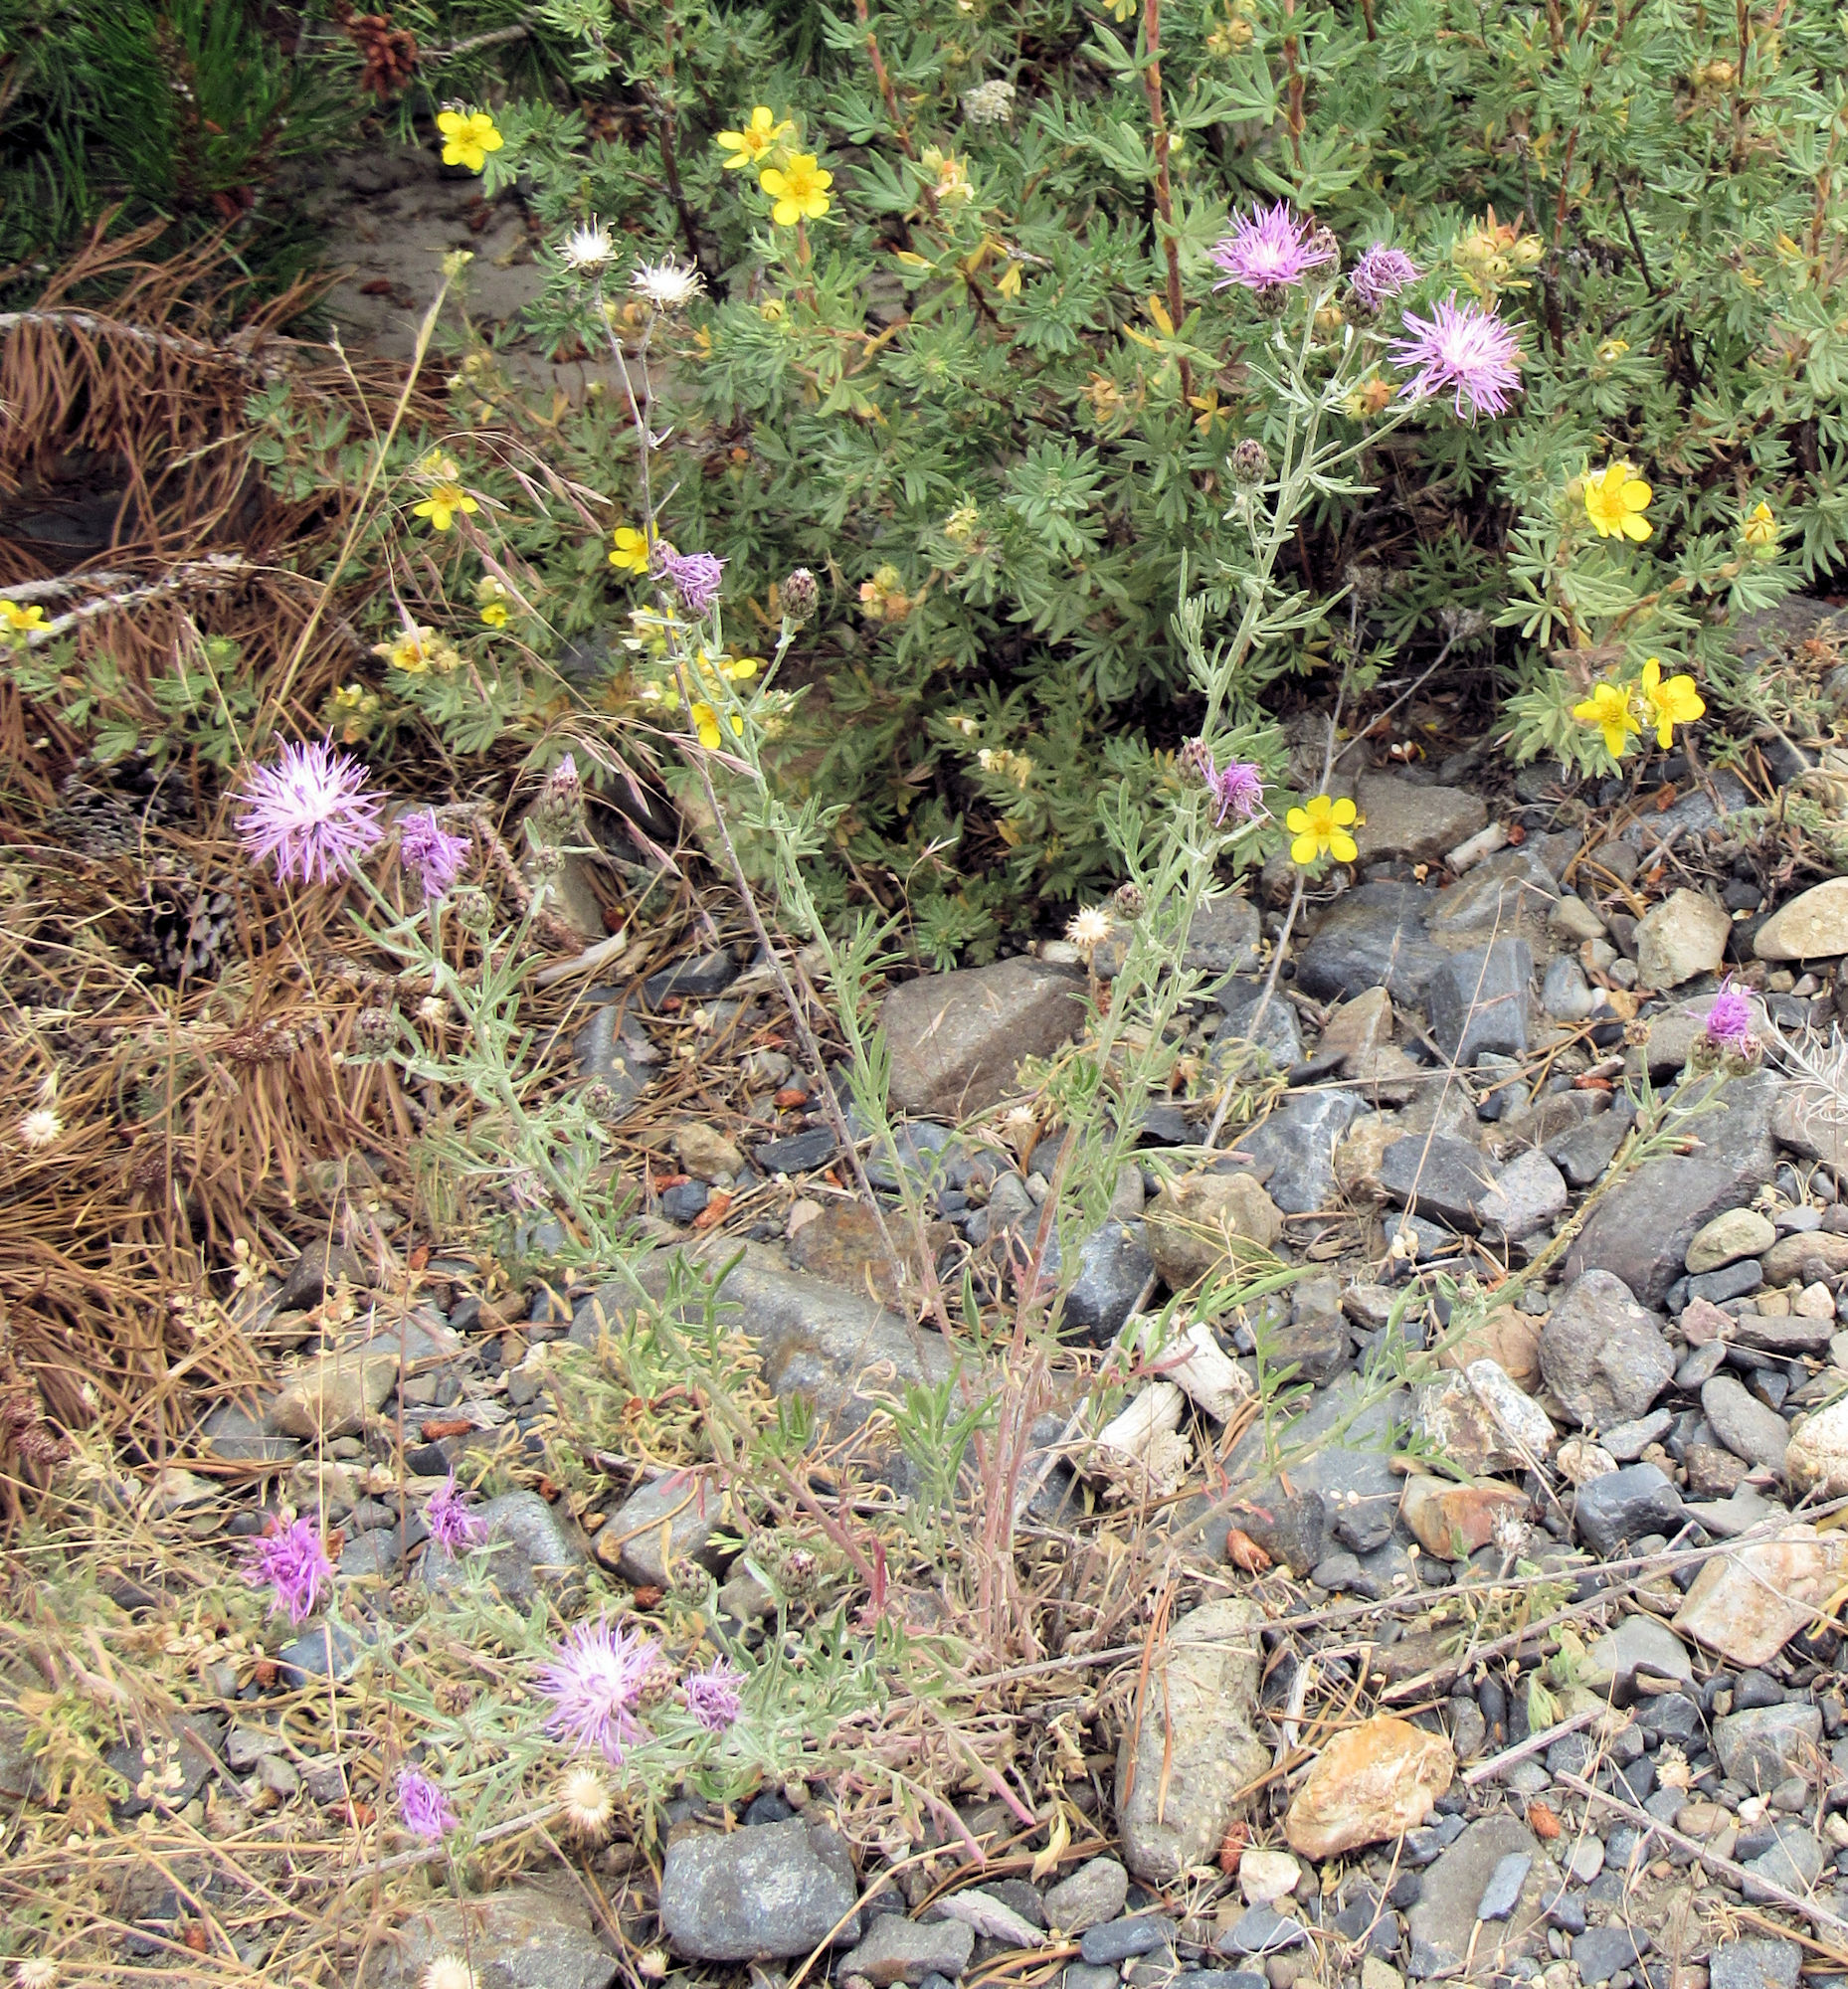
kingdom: Plantae
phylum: Tracheophyta
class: Magnoliopsida
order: Asterales
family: Asteraceae
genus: Centaurea
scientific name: Centaurea stoebe
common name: Spotted knapweed
